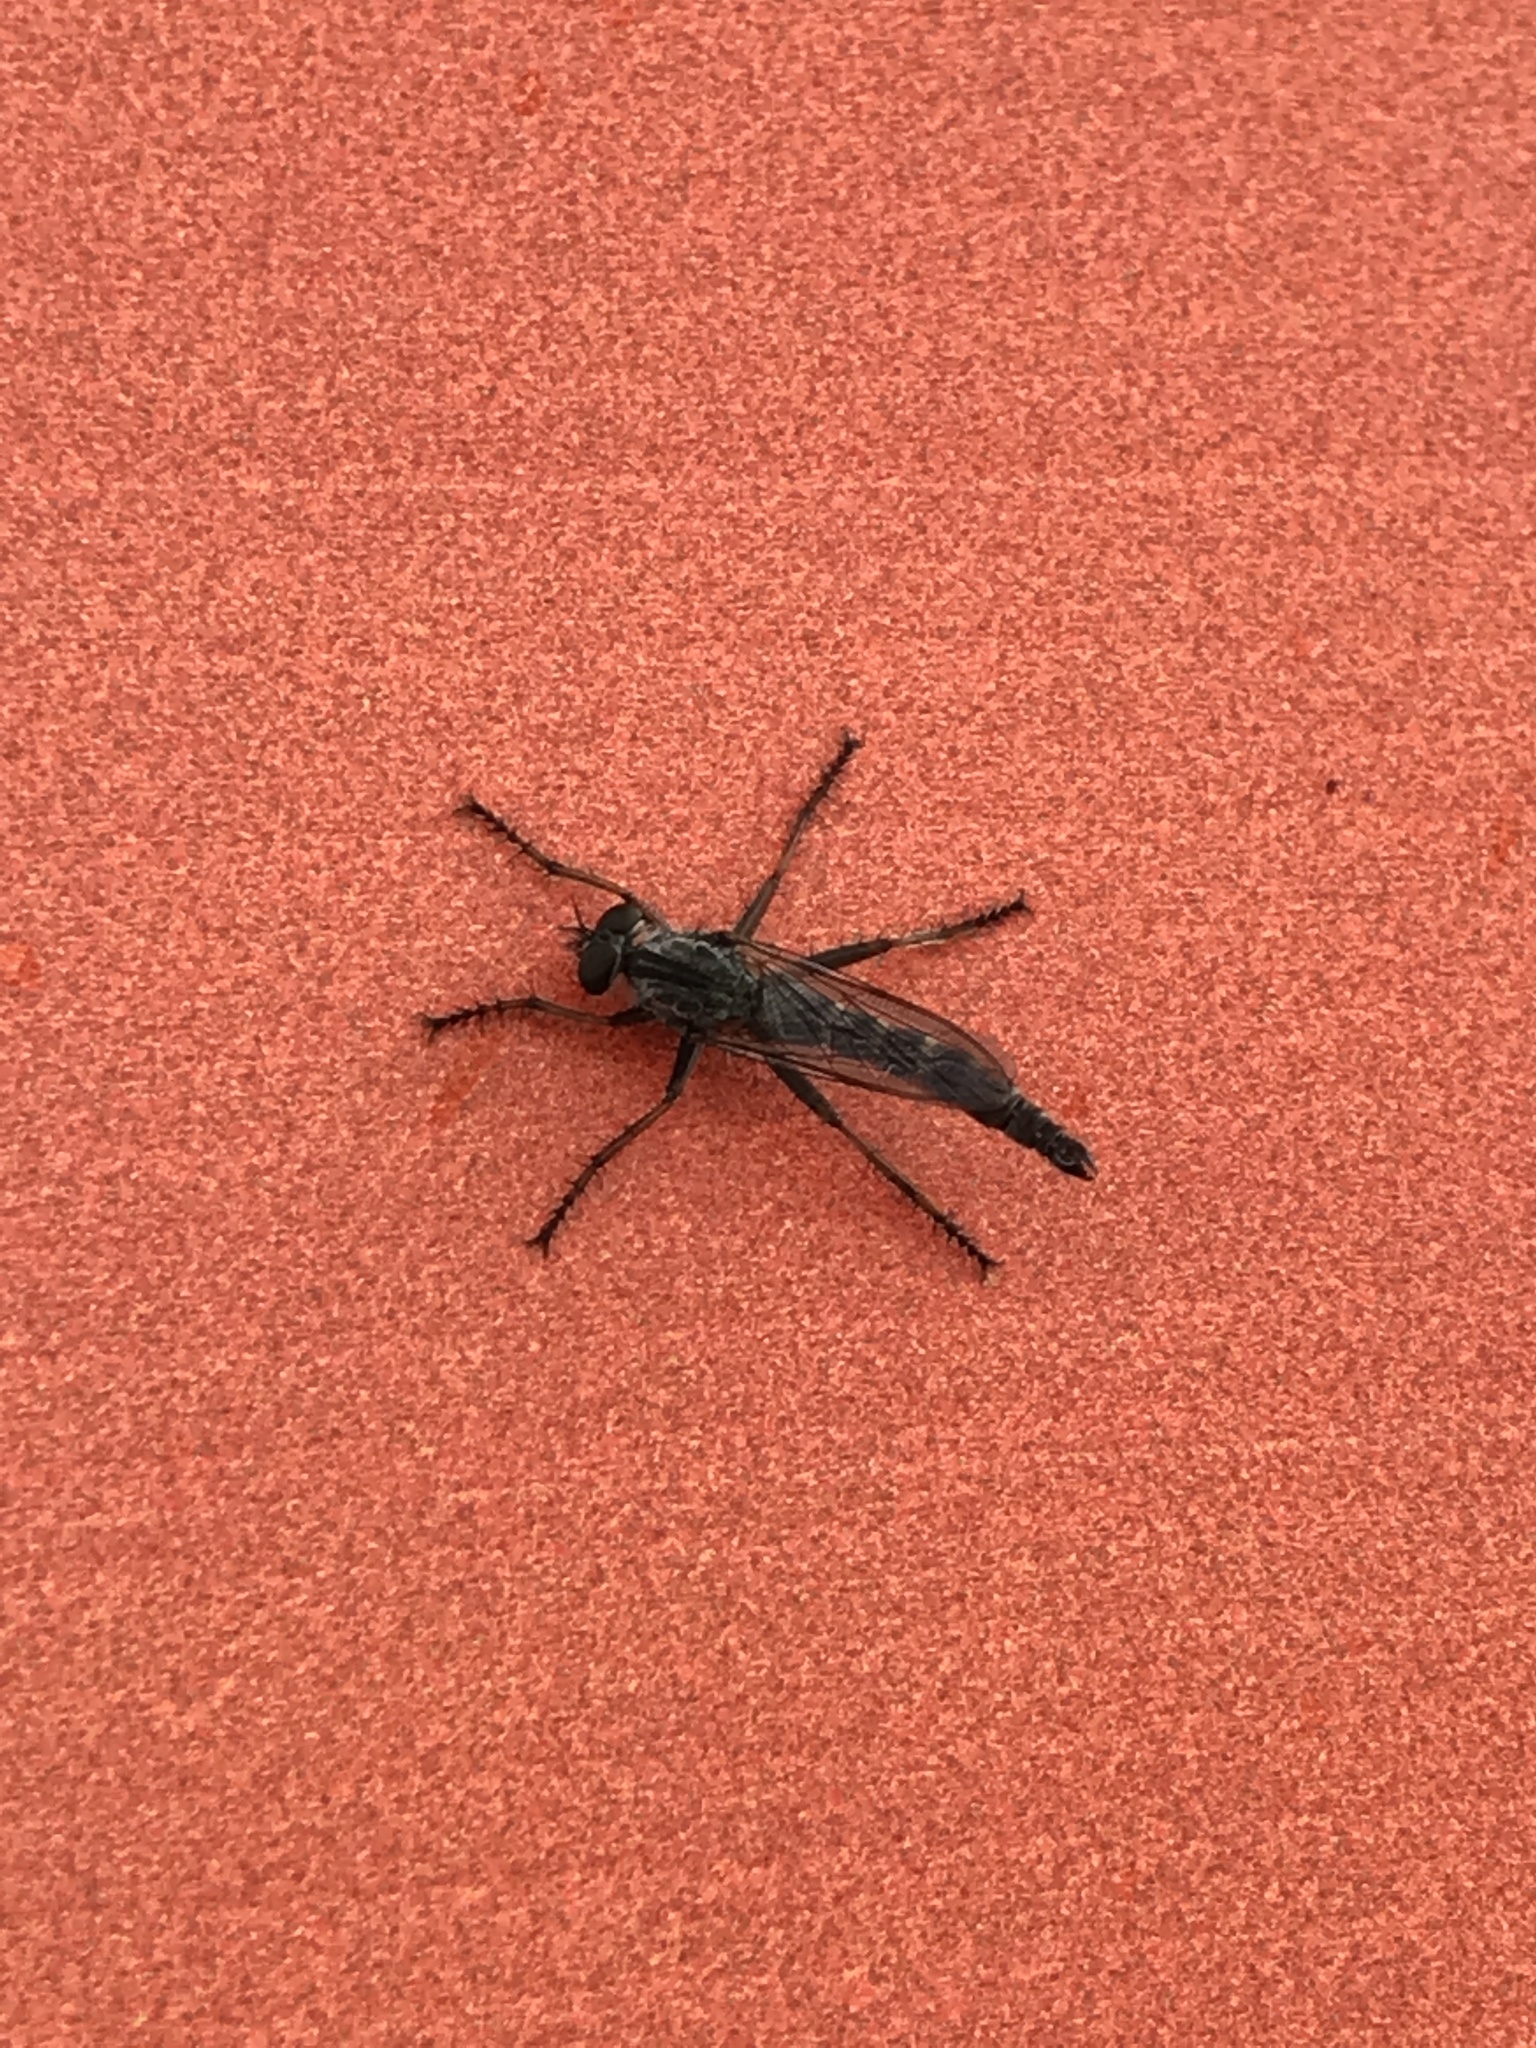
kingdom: Animalia
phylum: Arthropoda
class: Insecta
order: Diptera
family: Asilidae
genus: Machimus
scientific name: Machimus atricapillus
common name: Kite-tailed robberfly
